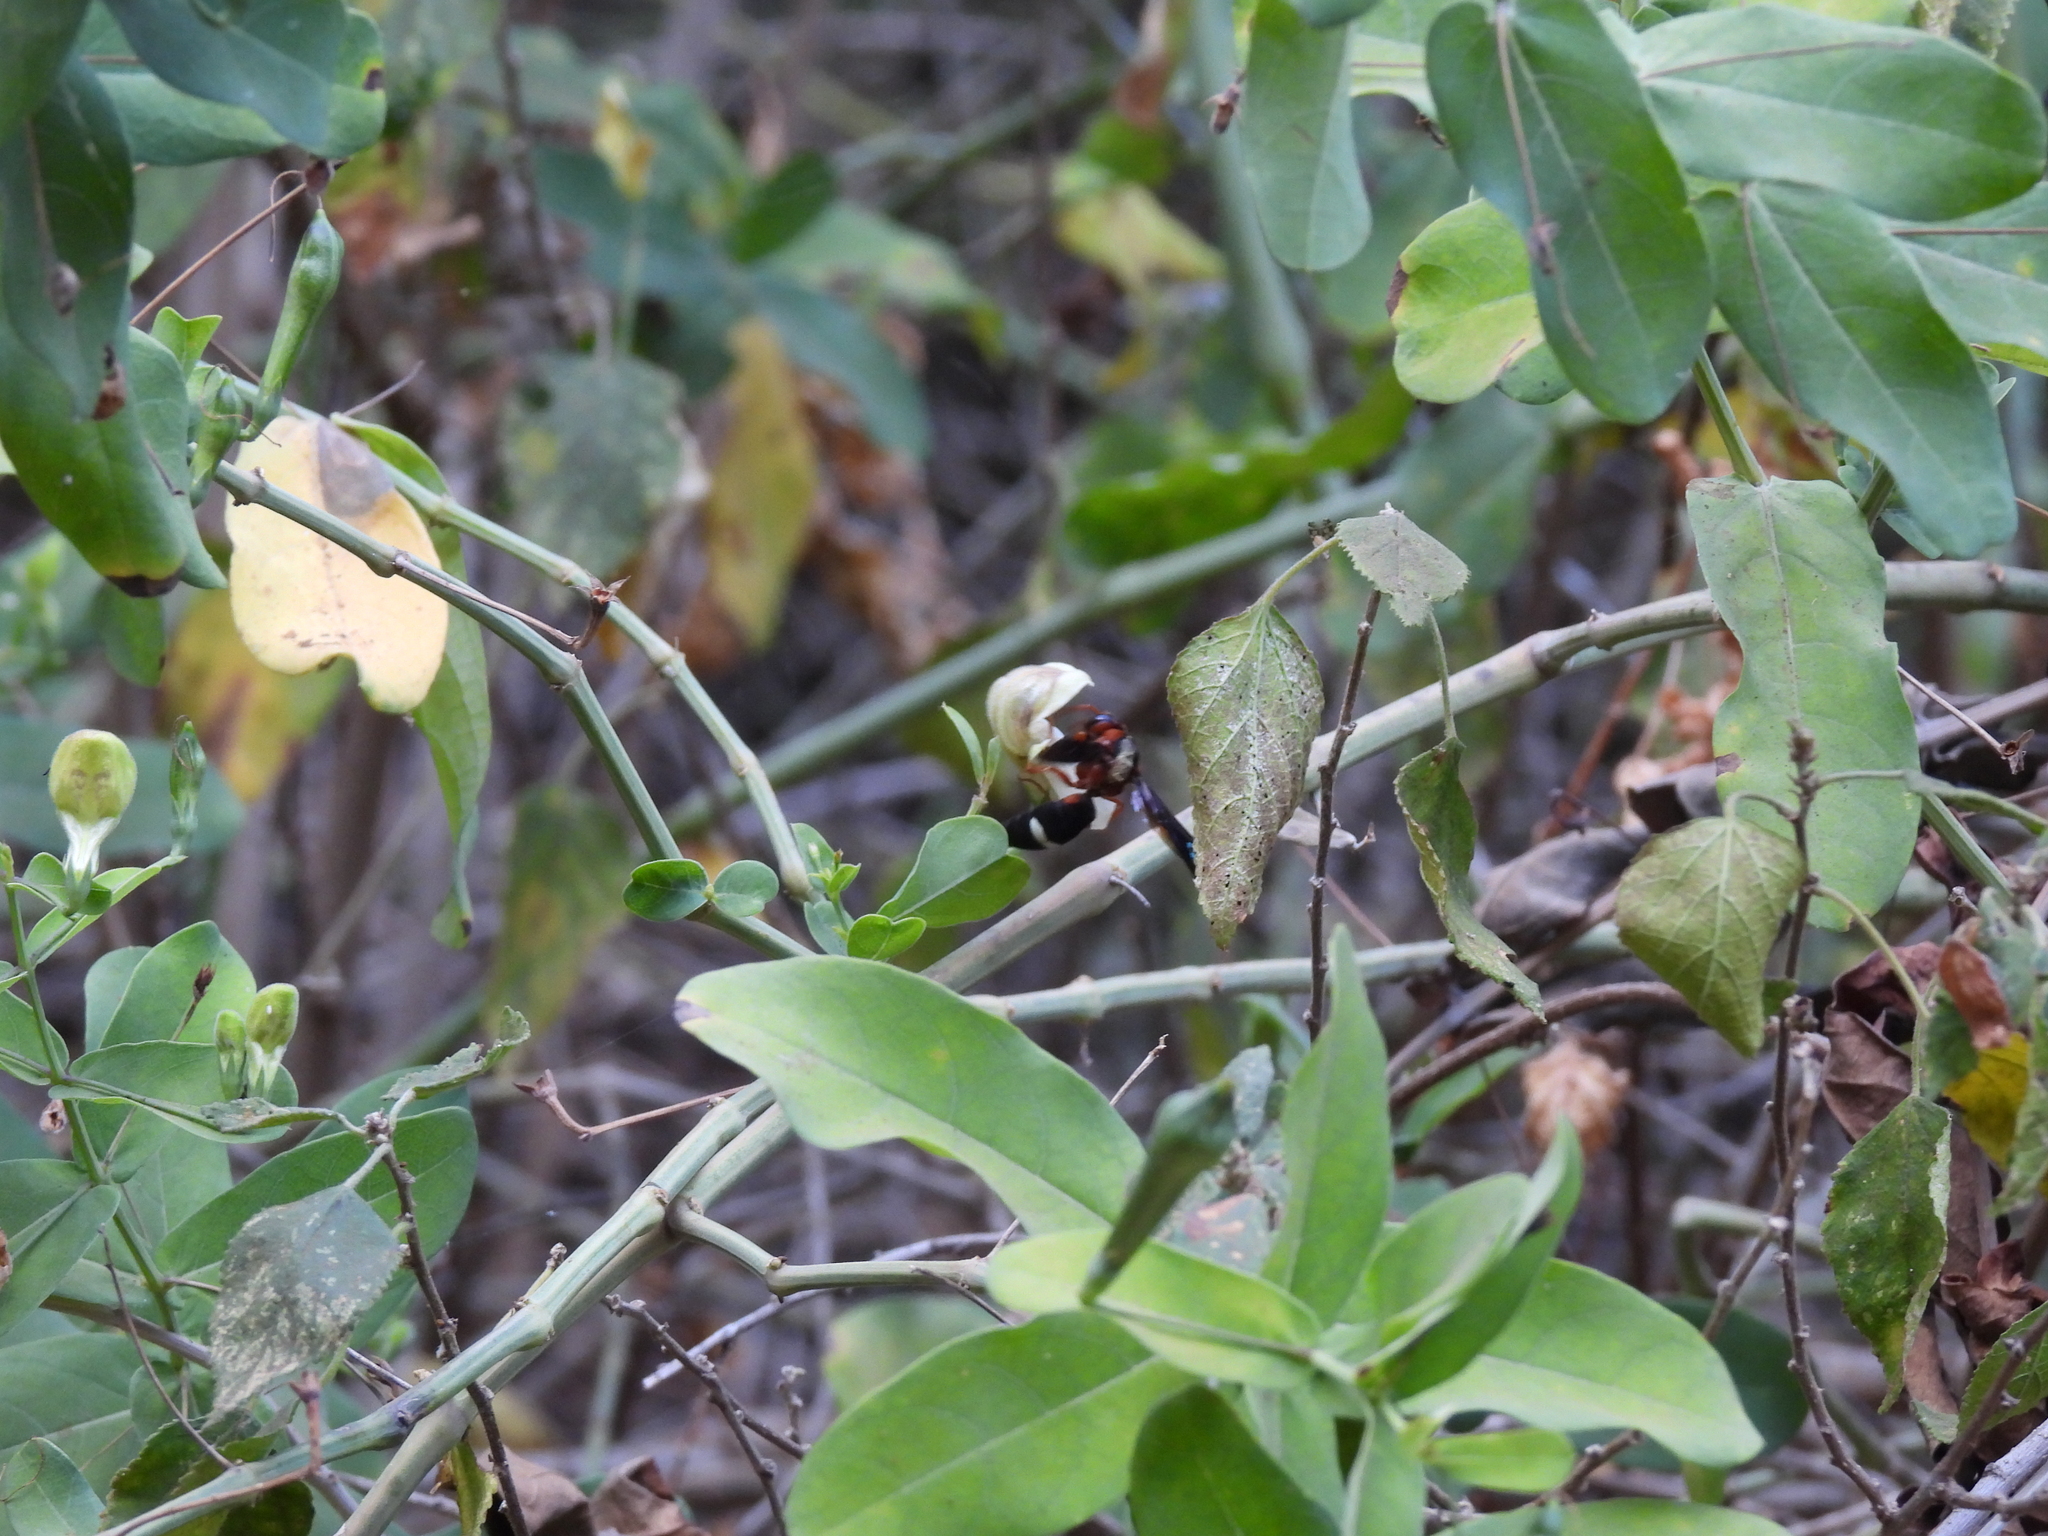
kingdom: Animalia
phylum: Arthropoda
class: Insecta
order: Hymenoptera
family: Eumenidae
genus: Anterhynchium
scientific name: Anterhynchium grayi
